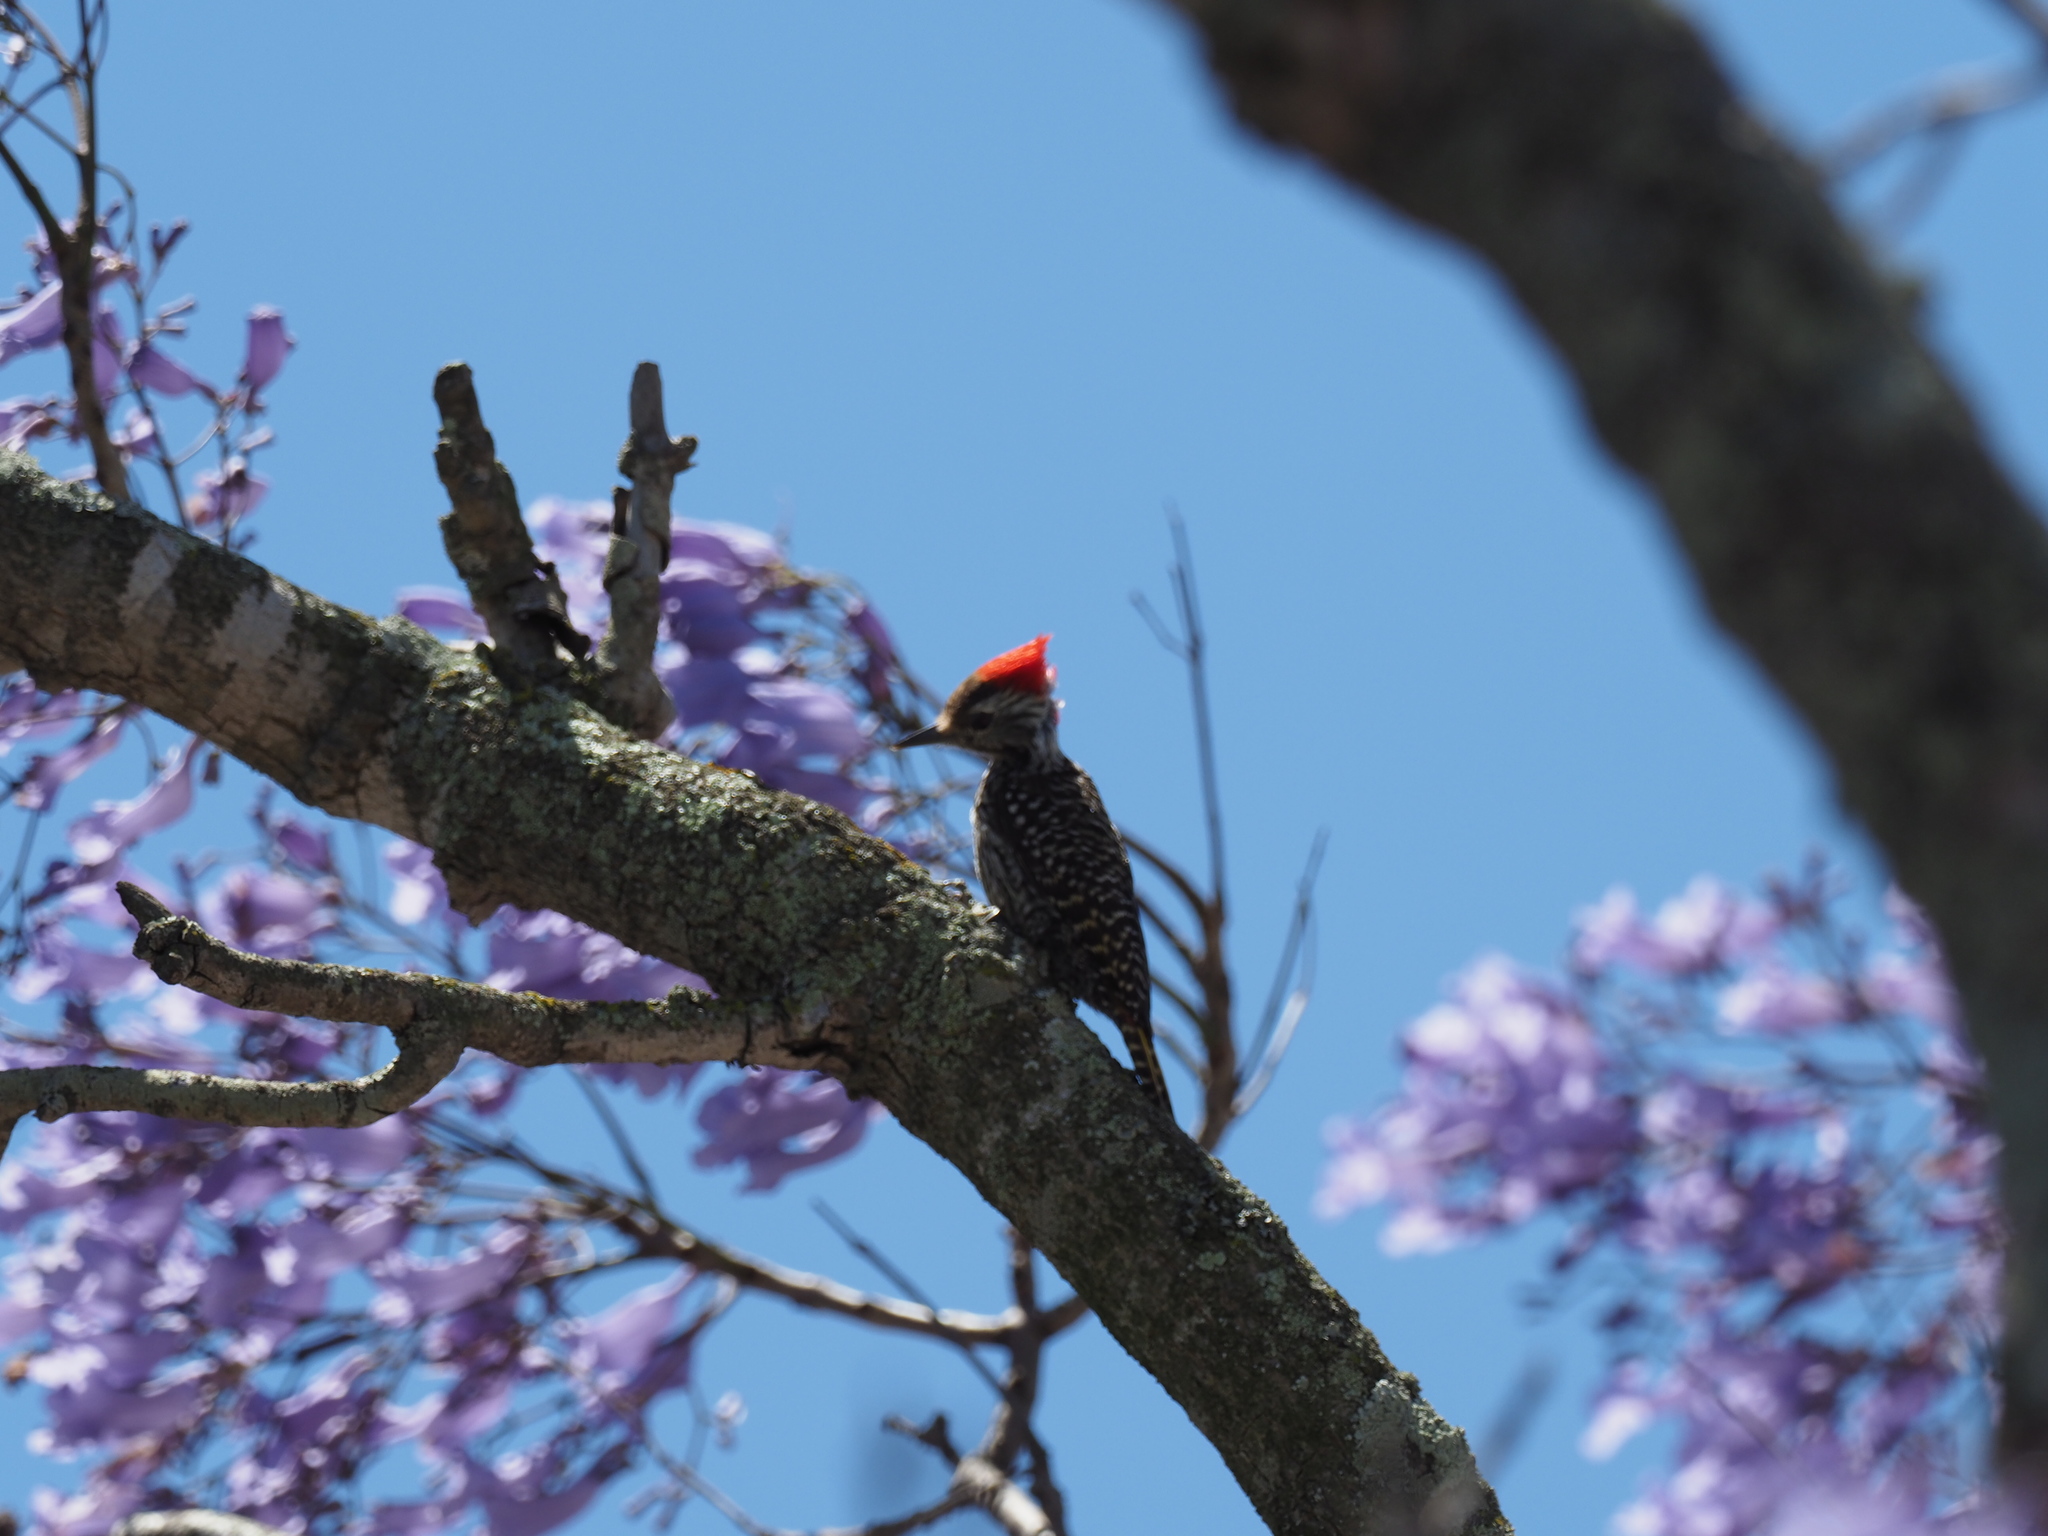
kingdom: Animalia
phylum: Chordata
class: Aves
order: Piciformes
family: Picidae
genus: Dendropicos
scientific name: Dendropicos fuscescens
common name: Cardinal woodpecker
